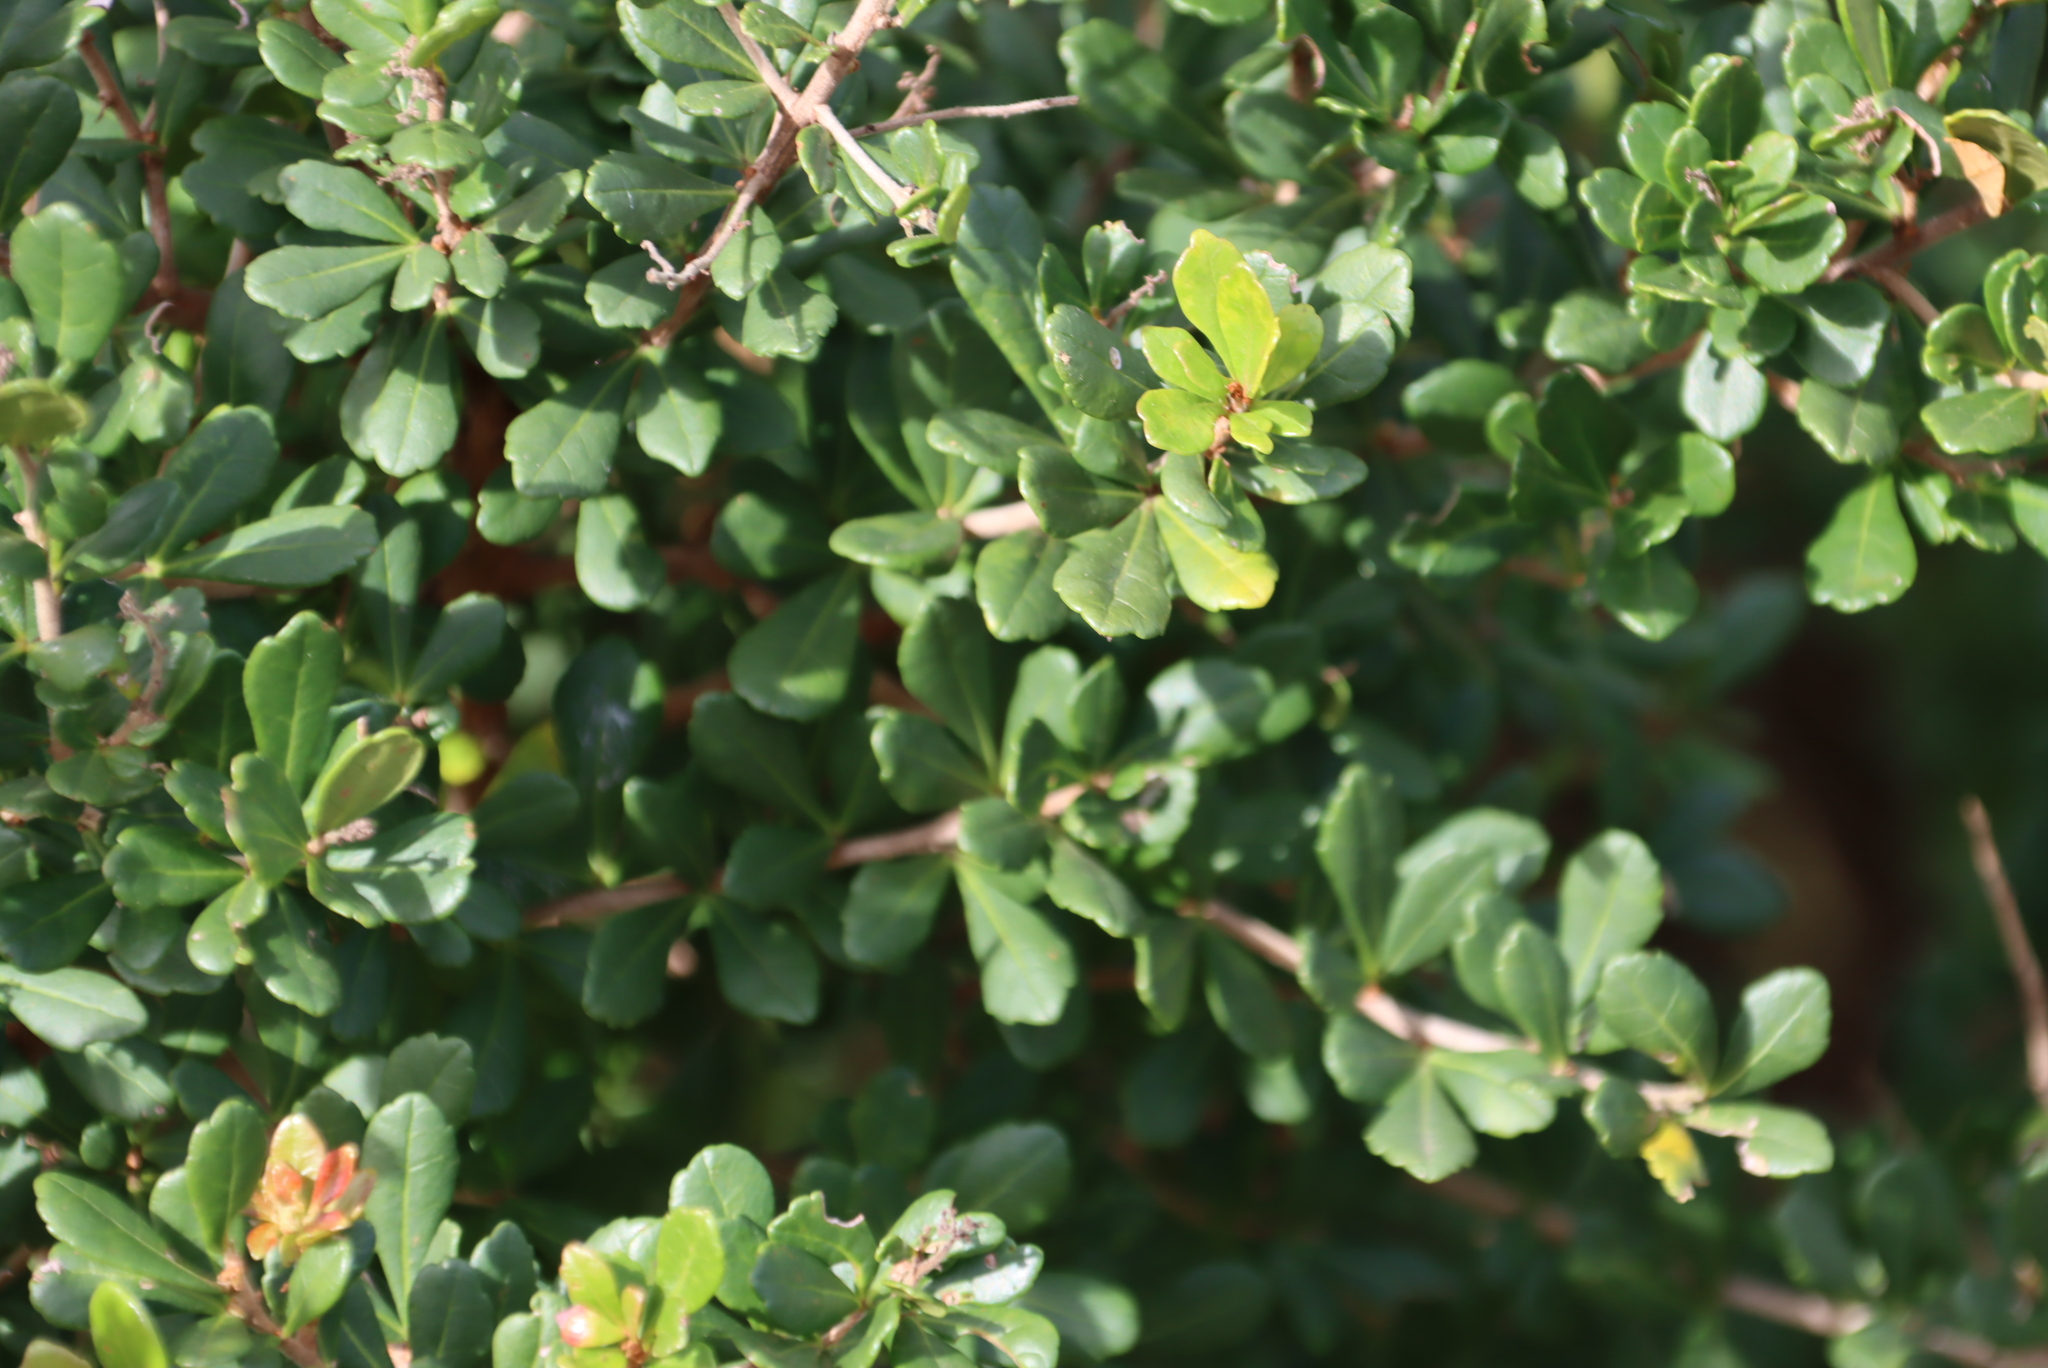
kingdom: Plantae
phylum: Tracheophyta
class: Magnoliopsida
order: Sapindales
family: Anacardiaceae
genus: Searsia
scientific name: Searsia crenata
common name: Crowberry
